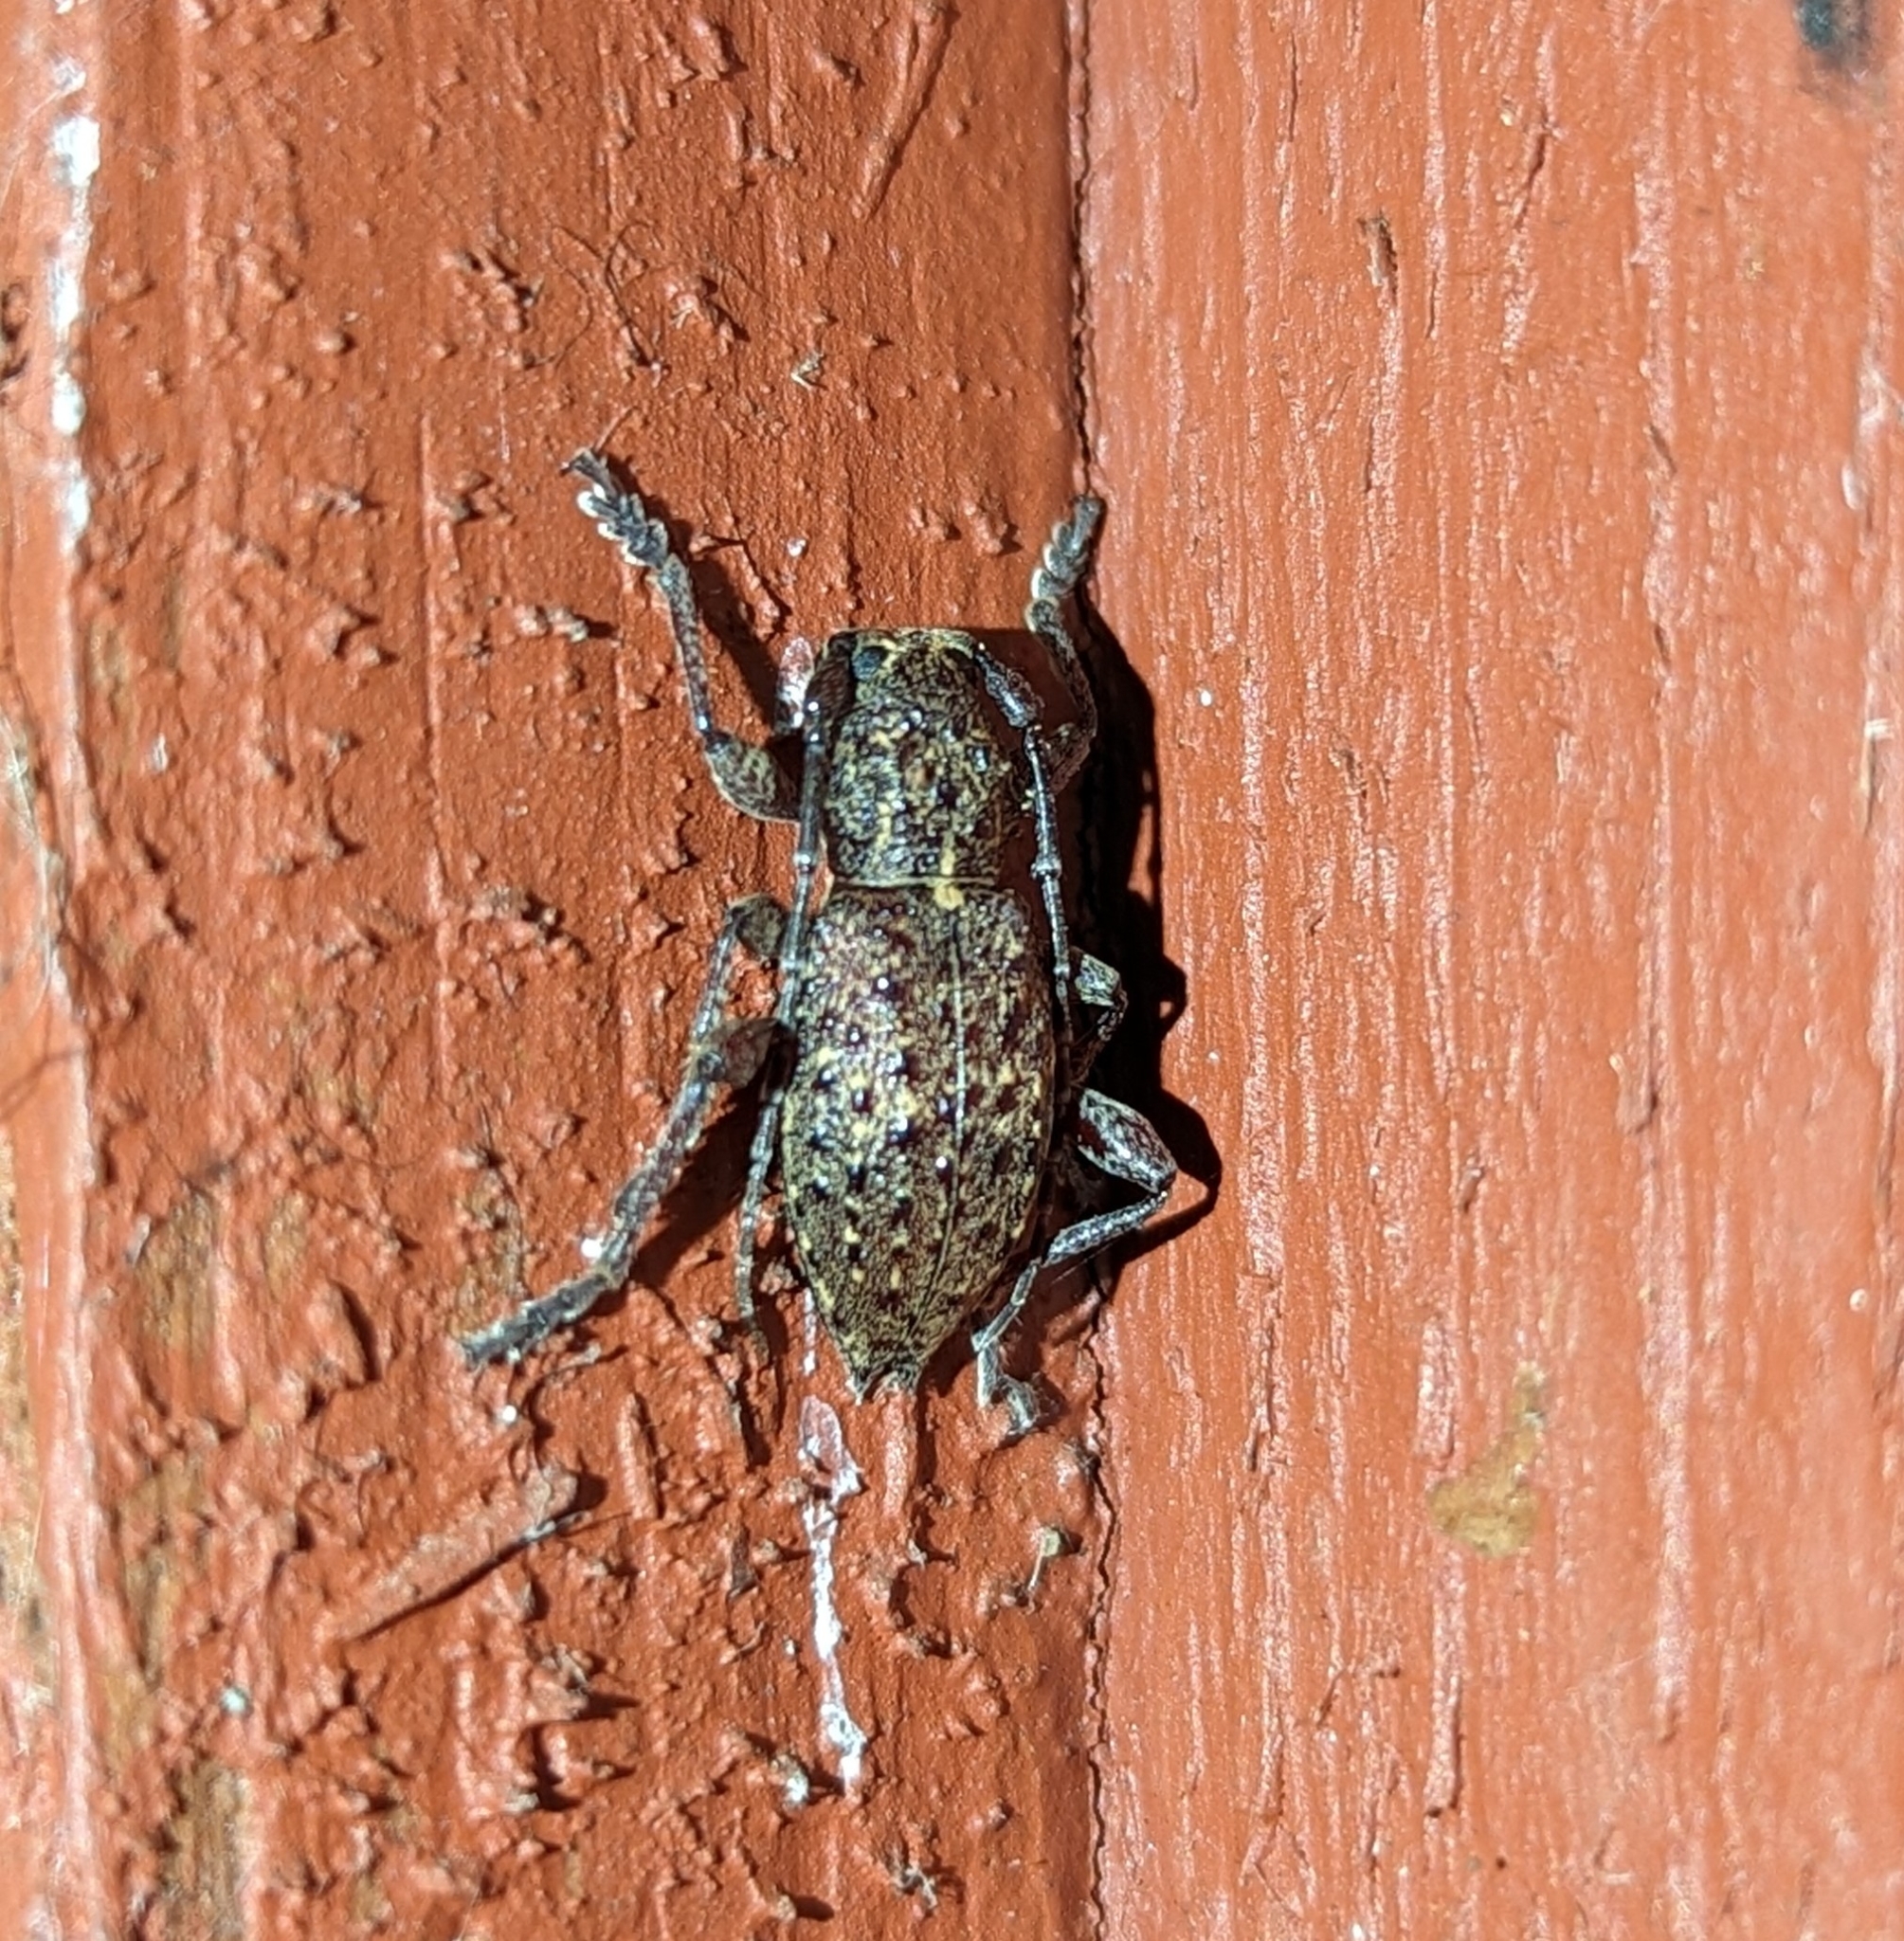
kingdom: Animalia
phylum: Arthropoda
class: Insecta
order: Coleoptera
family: Cerambycidae
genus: Plectrura
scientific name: Plectrura spinicauda
